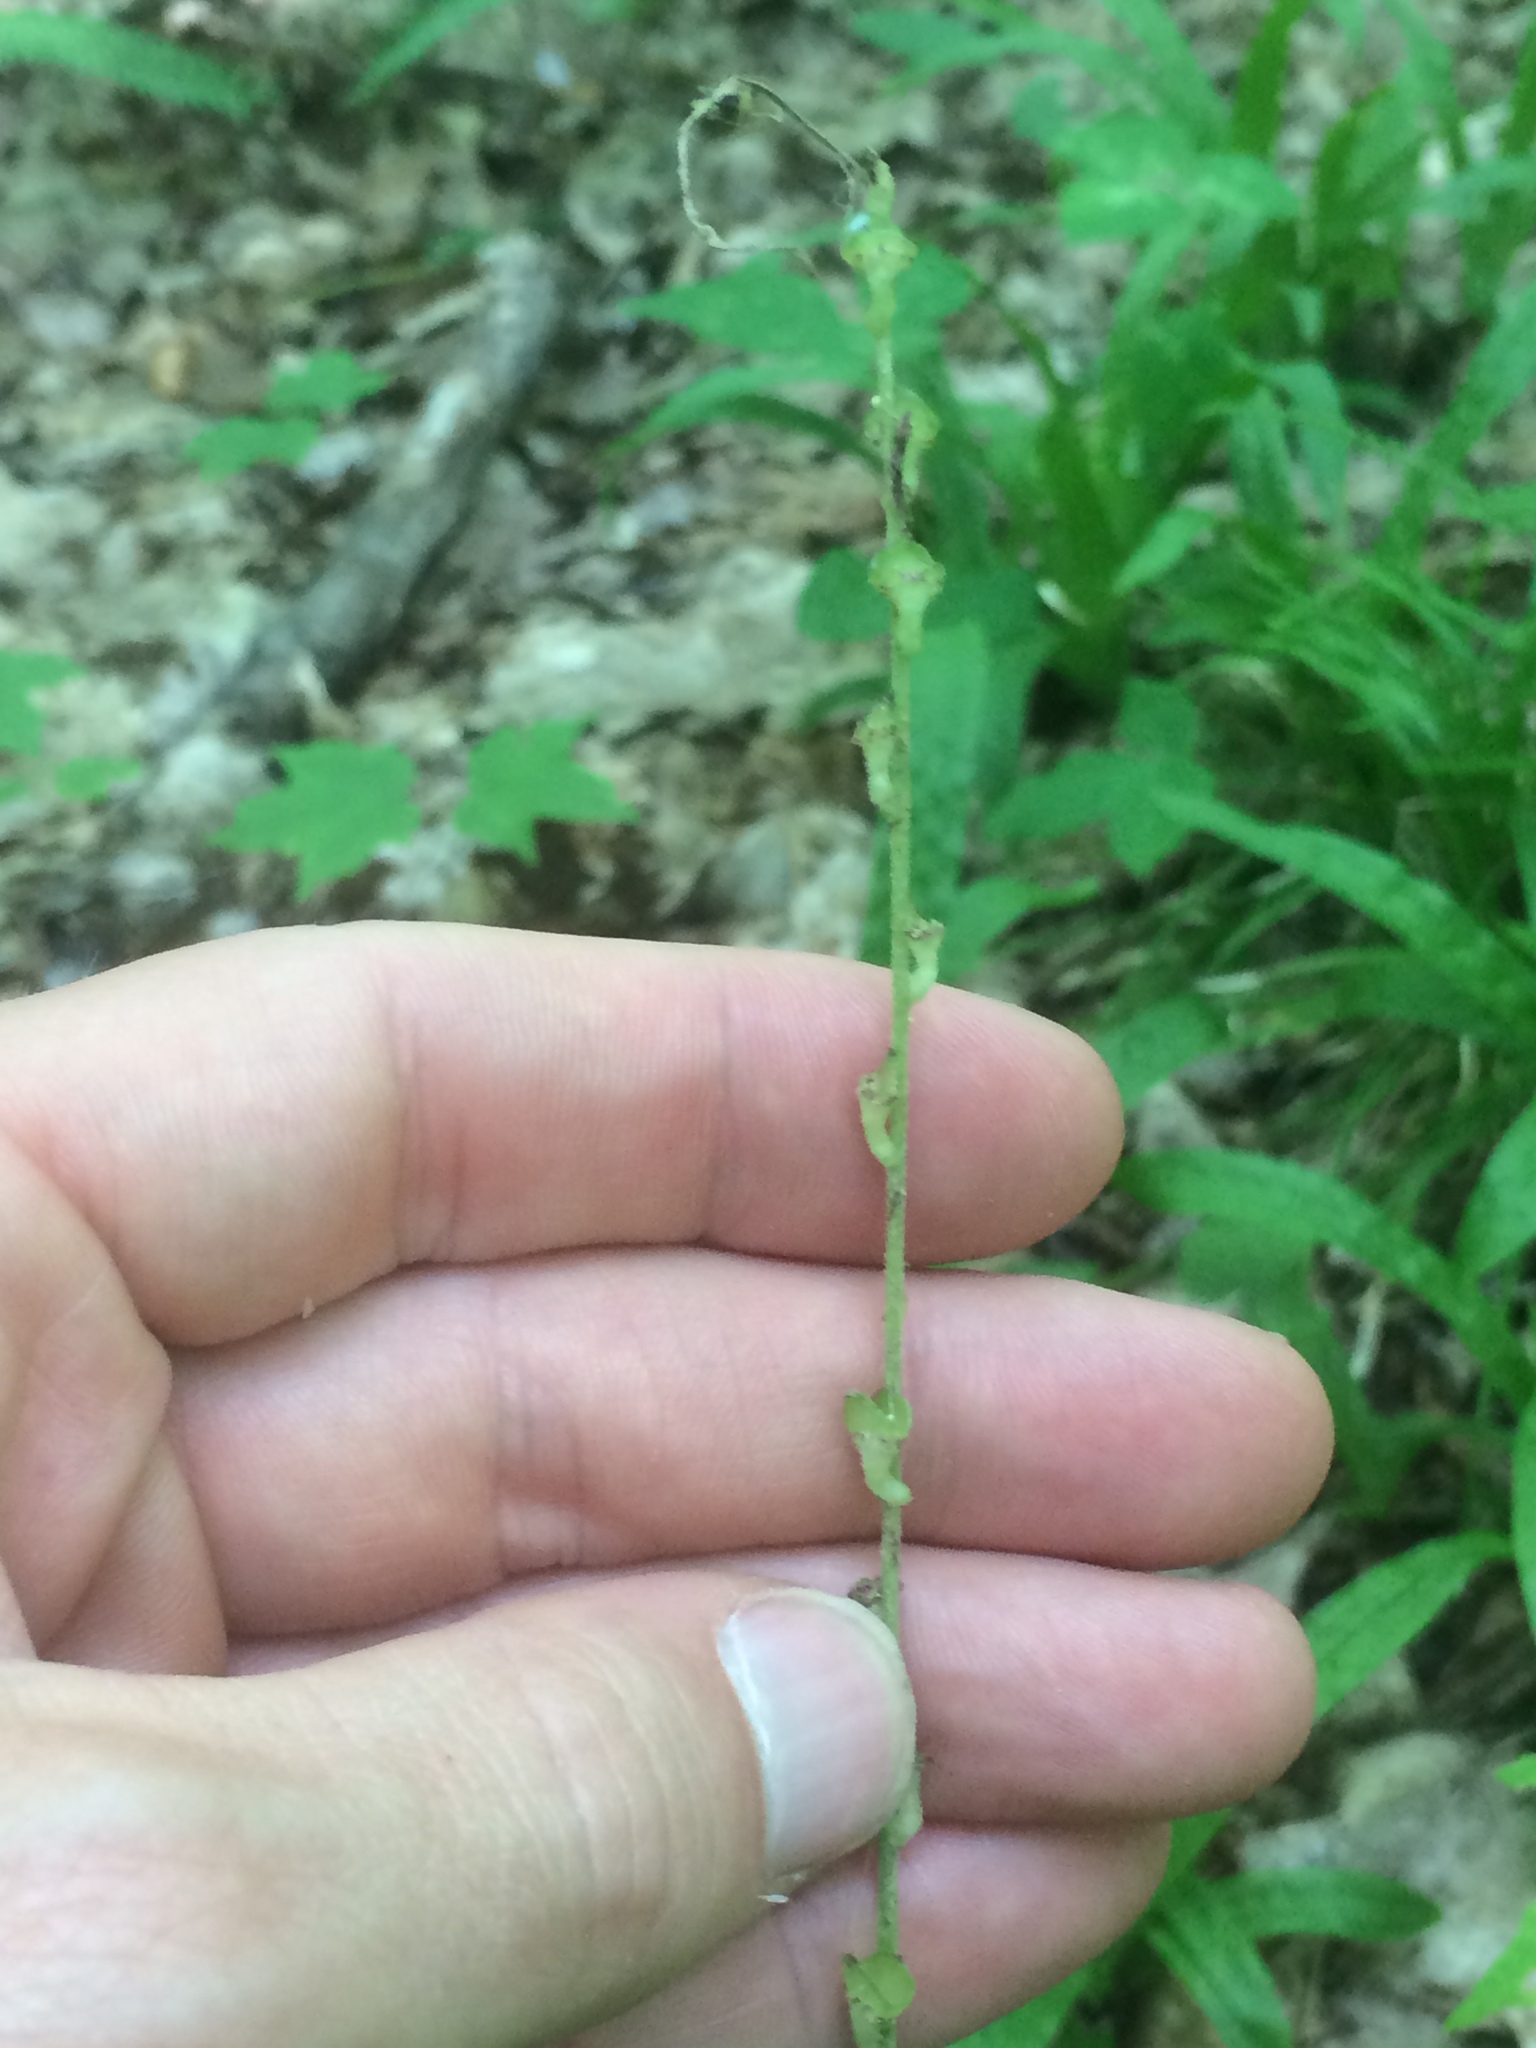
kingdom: Plantae
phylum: Tracheophyta
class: Magnoliopsida
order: Saxifragales
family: Saxifragaceae
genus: Mitella
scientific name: Mitella diphylla
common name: Coolwort
